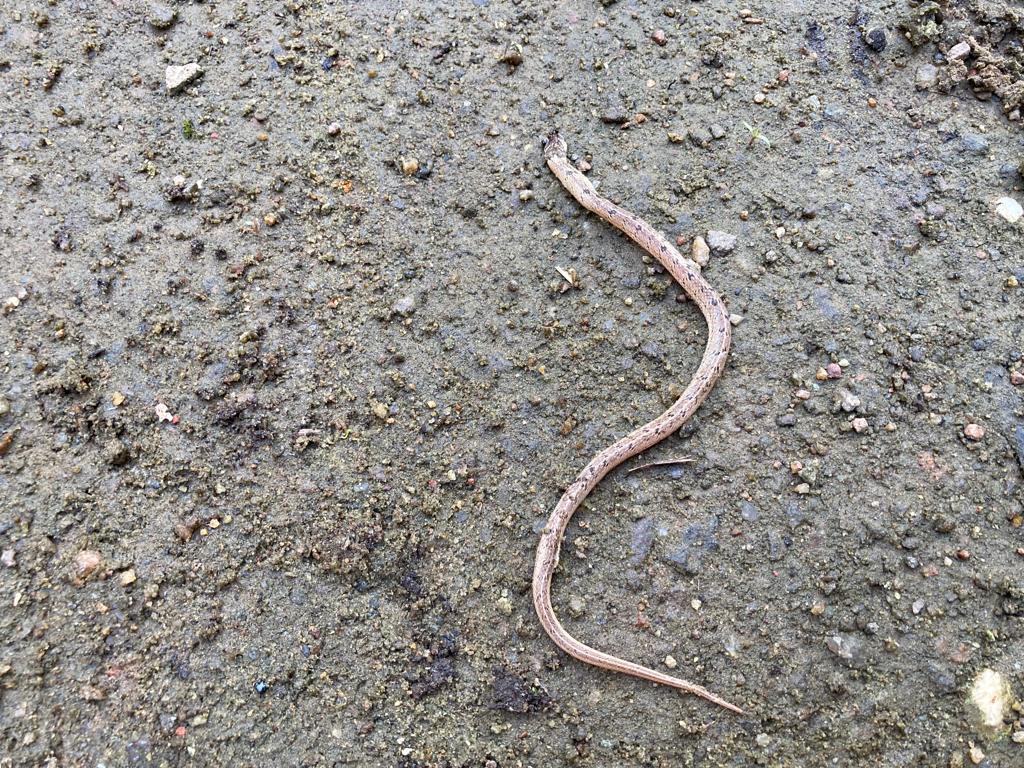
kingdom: Animalia
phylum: Chordata
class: Squamata
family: Colubridae
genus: Oligodon
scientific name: Oligodon taeniolatus
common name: Loos snake
